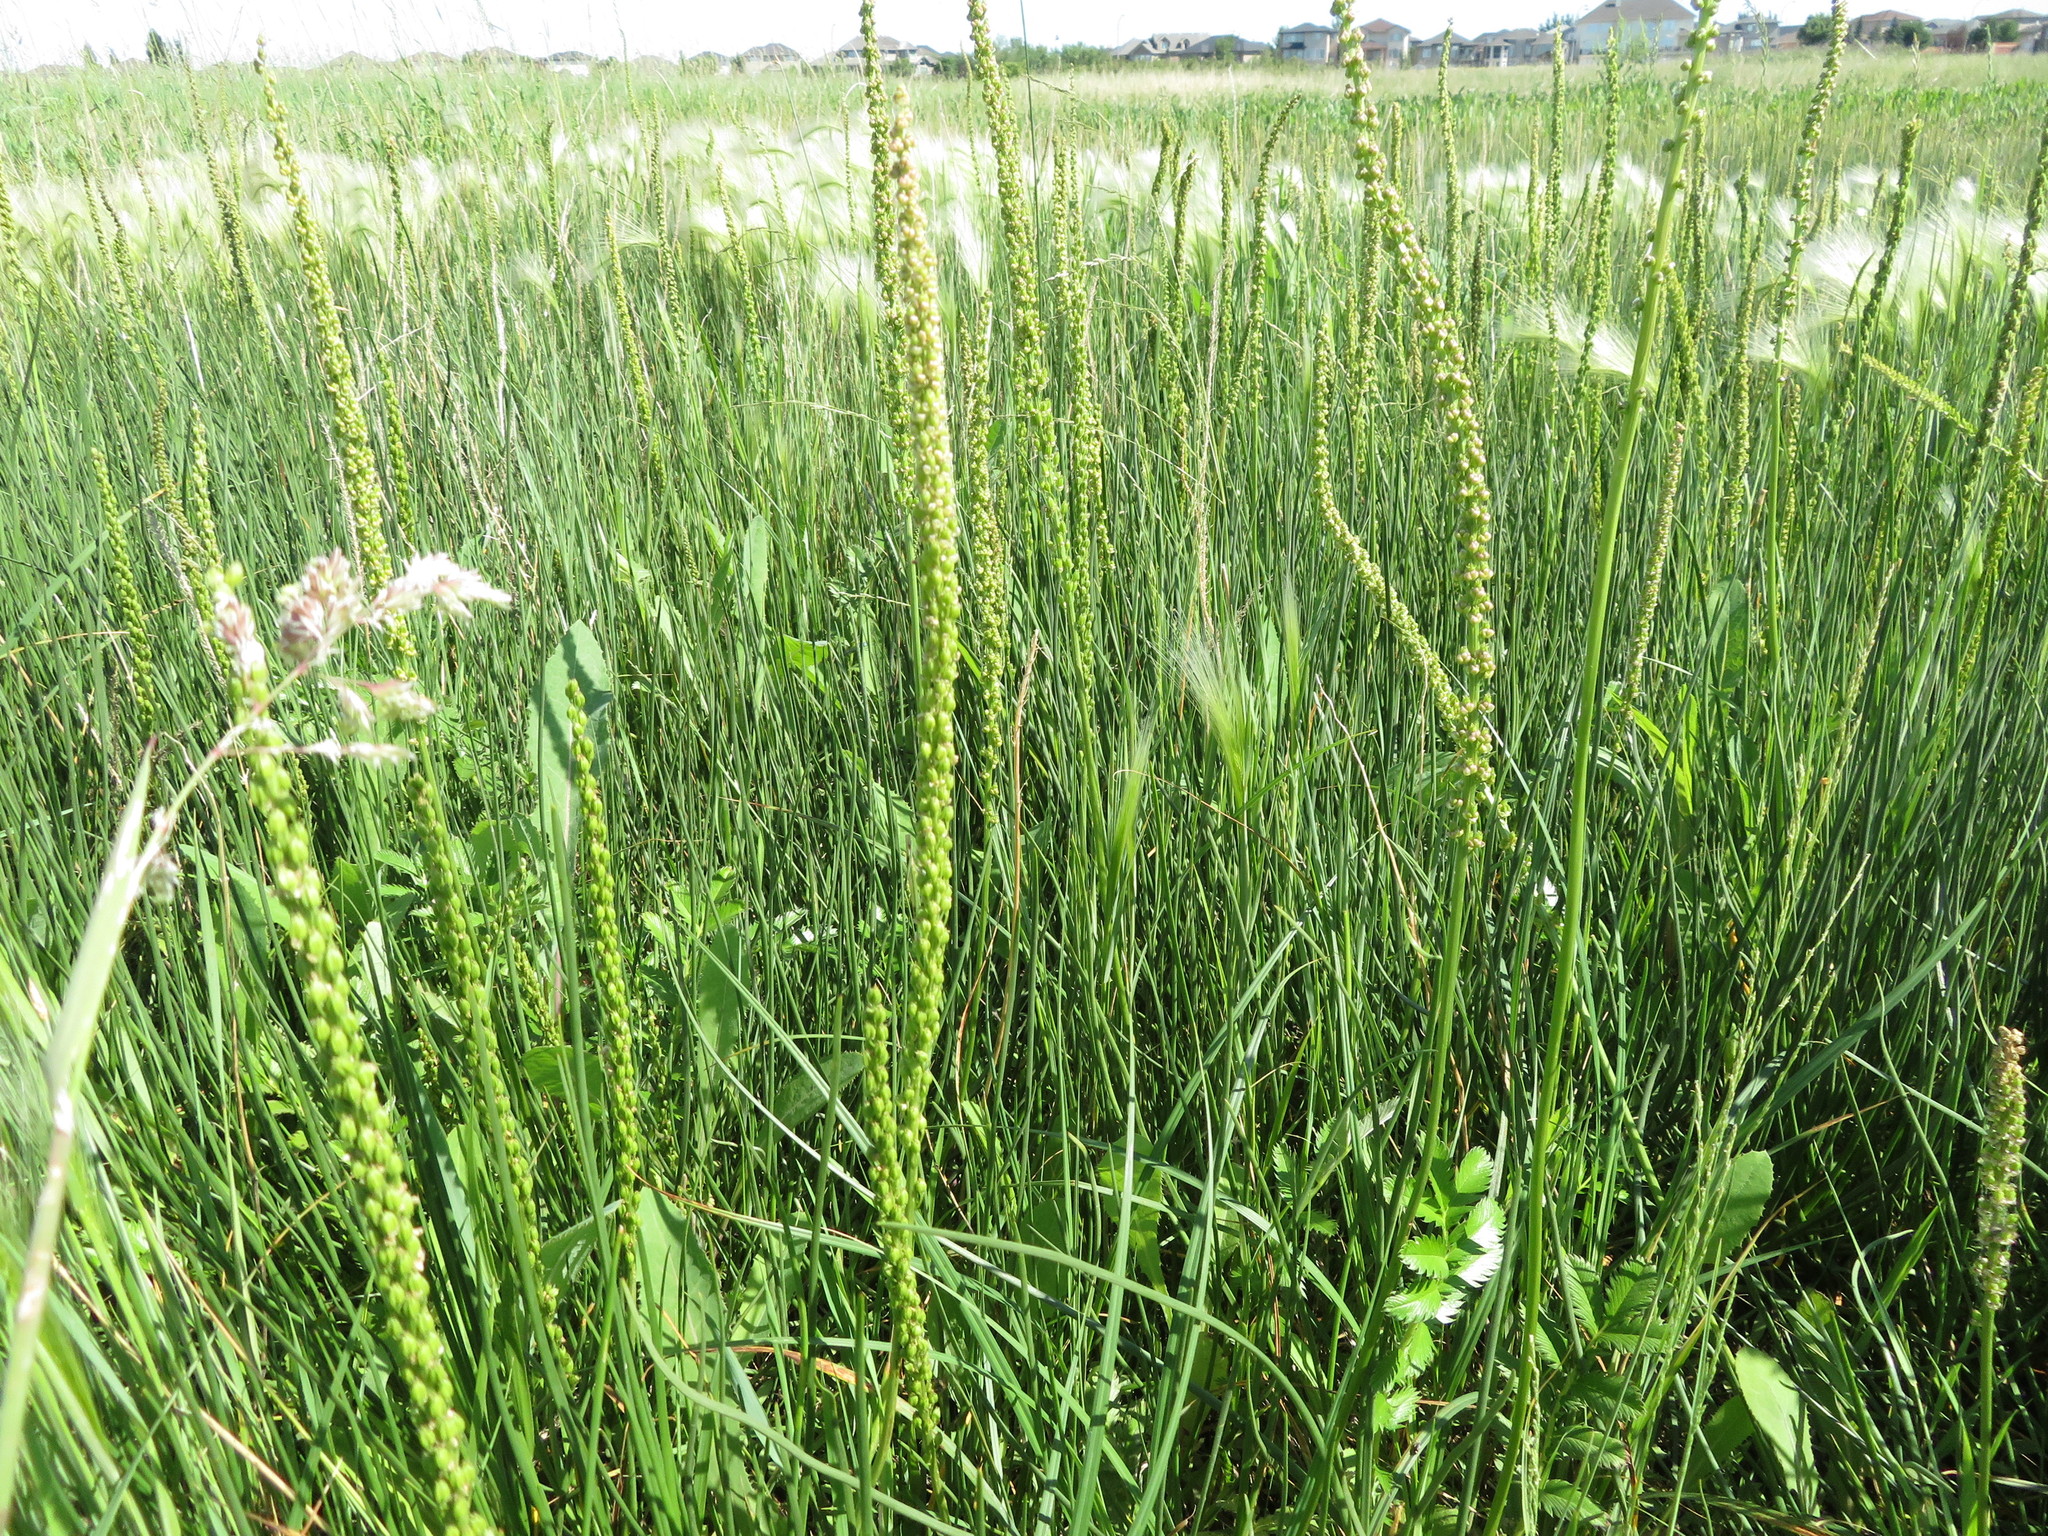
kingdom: Plantae
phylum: Tracheophyta
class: Liliopsida
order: Alismatales
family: Juncaginaceae
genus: Triglochin
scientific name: Triglochin maritima
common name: Sea arrowgrass
